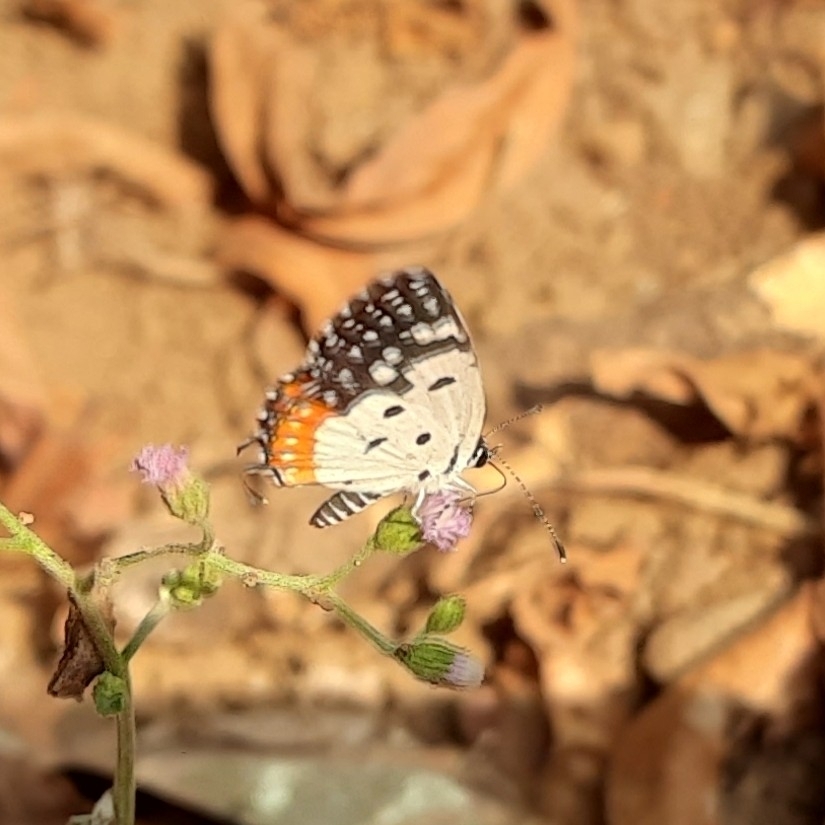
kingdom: Animalia
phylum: Arthropoda
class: Insecta
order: Lepidoptera
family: Lycaenidae
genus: Talicada
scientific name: Talicada nyseus
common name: Red pierrot
